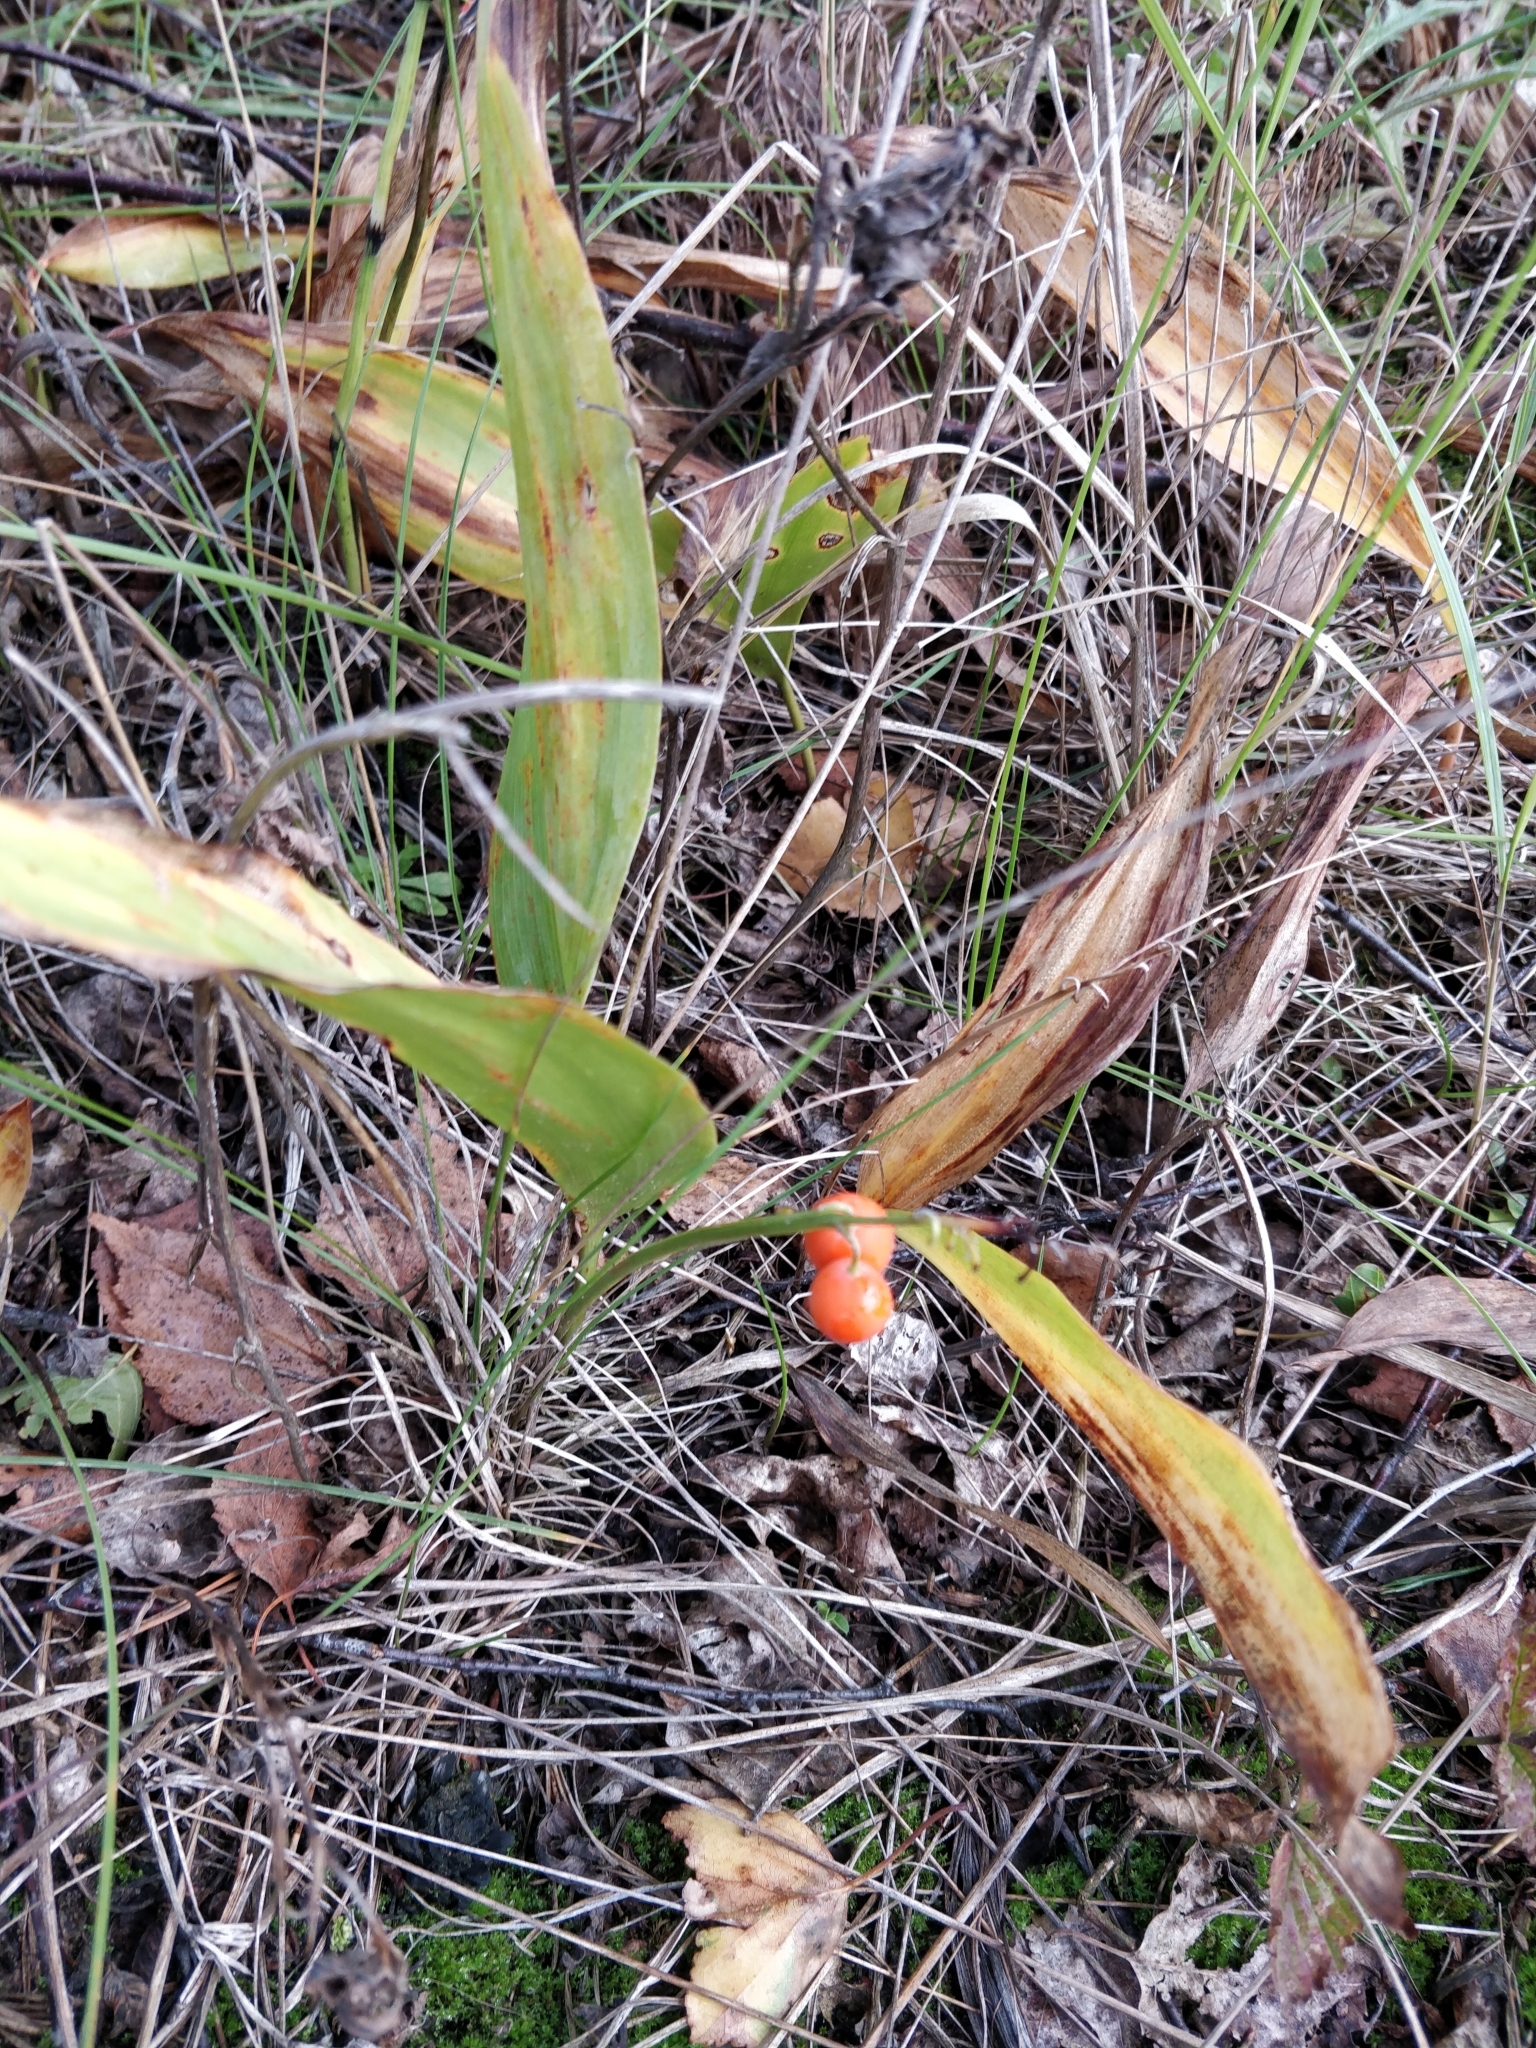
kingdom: Plantae
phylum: Tracheophyta
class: Liliopsida
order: Asparagales
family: Asparagaceae
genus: Convallaria
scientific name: Convallaria majalis
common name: Lily-of-the-valley
